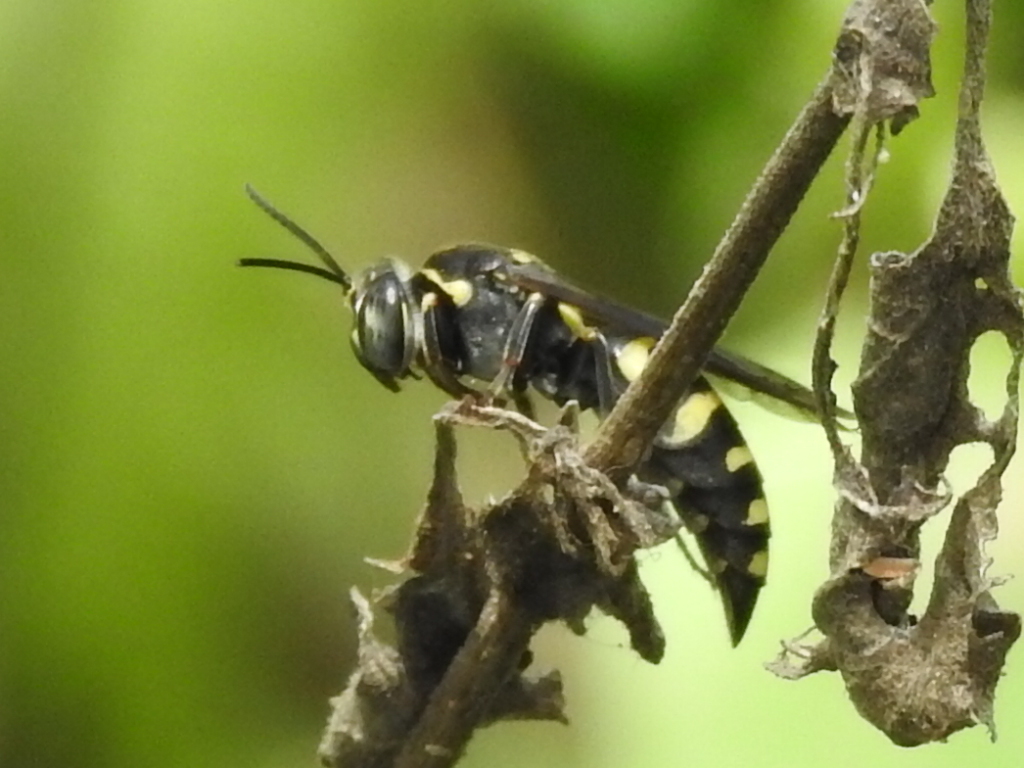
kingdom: Animalia
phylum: Arthropoda
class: Insecta
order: Hymenoptera
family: Crabronidae
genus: Bicyrtes
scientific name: Bicyrtes quadrifasciatus
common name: Four-banded stink bug hunter wasp
